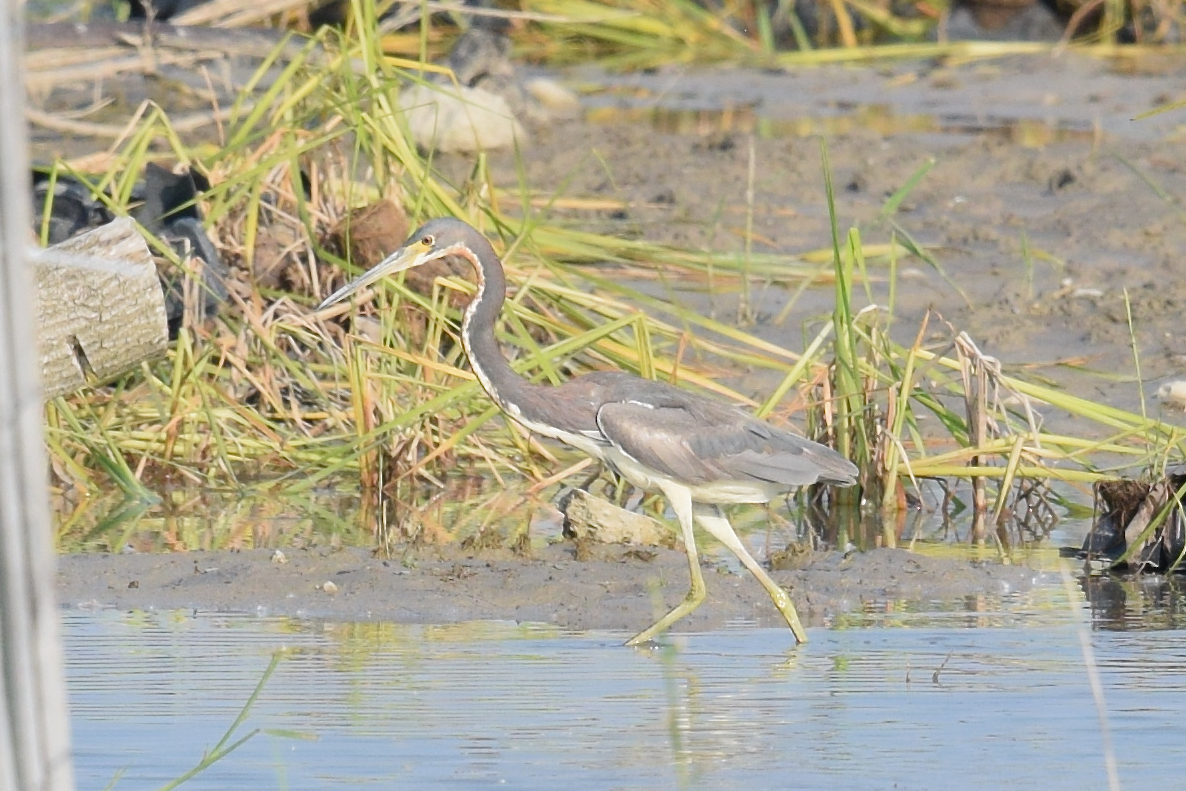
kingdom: Animalia
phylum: Chordata
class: Aves
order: Pelecaniformes
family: Ardeidae
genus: Egretta
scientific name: Egretta tricolor
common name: Tricolored heron
